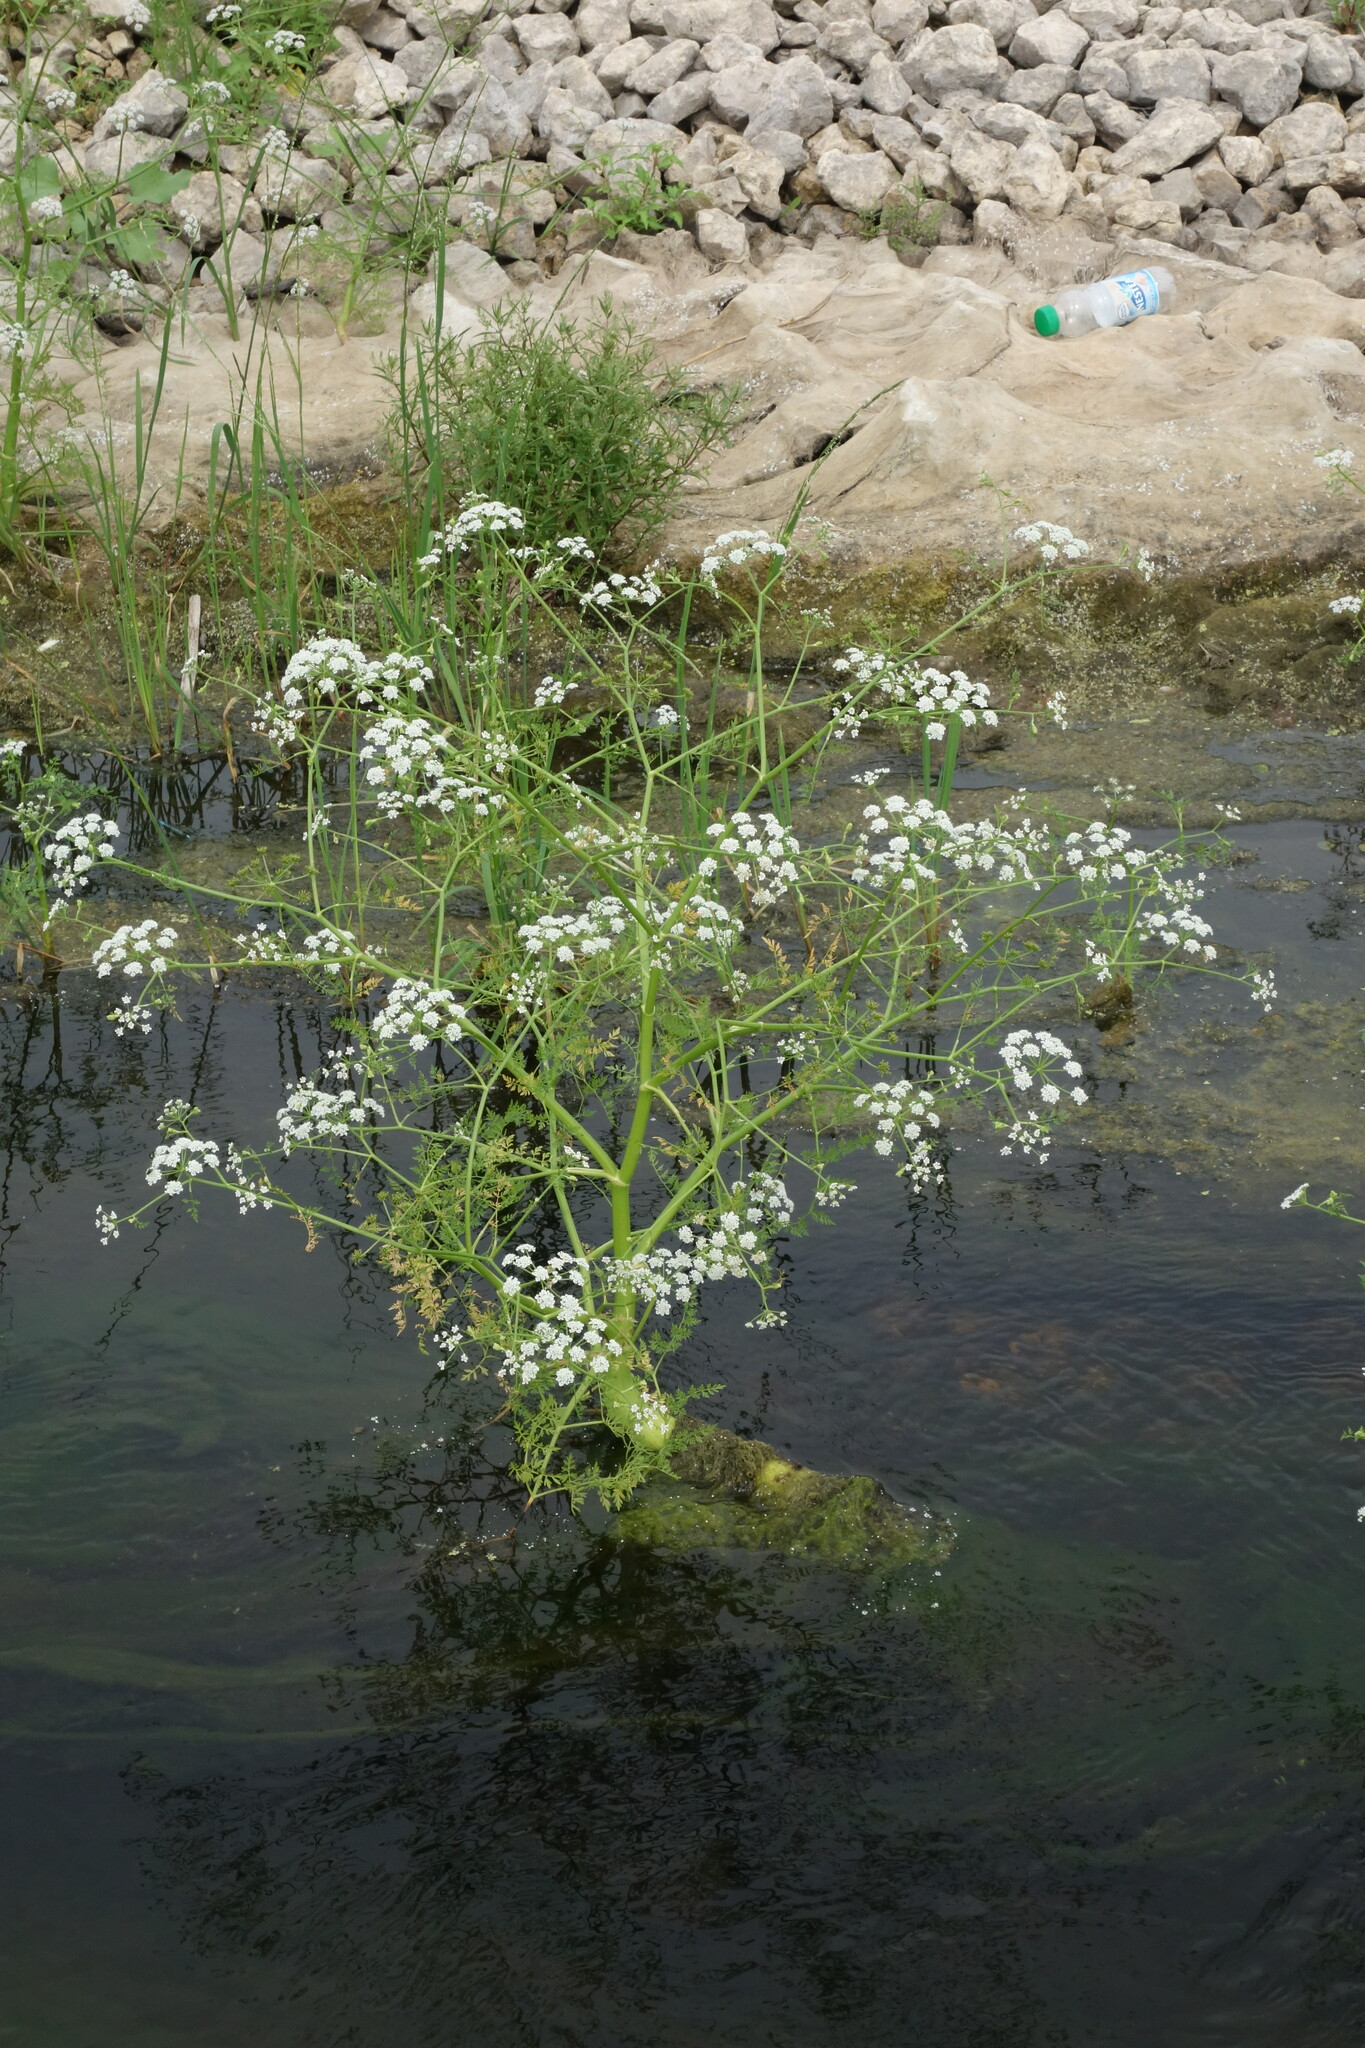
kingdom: Plantae
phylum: Tracheophyta
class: Magnoliopsida
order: Apiales
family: Apiaceae
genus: Oenanthe
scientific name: Oenanthe aquatica
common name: Fine-leaved water-dropwort
